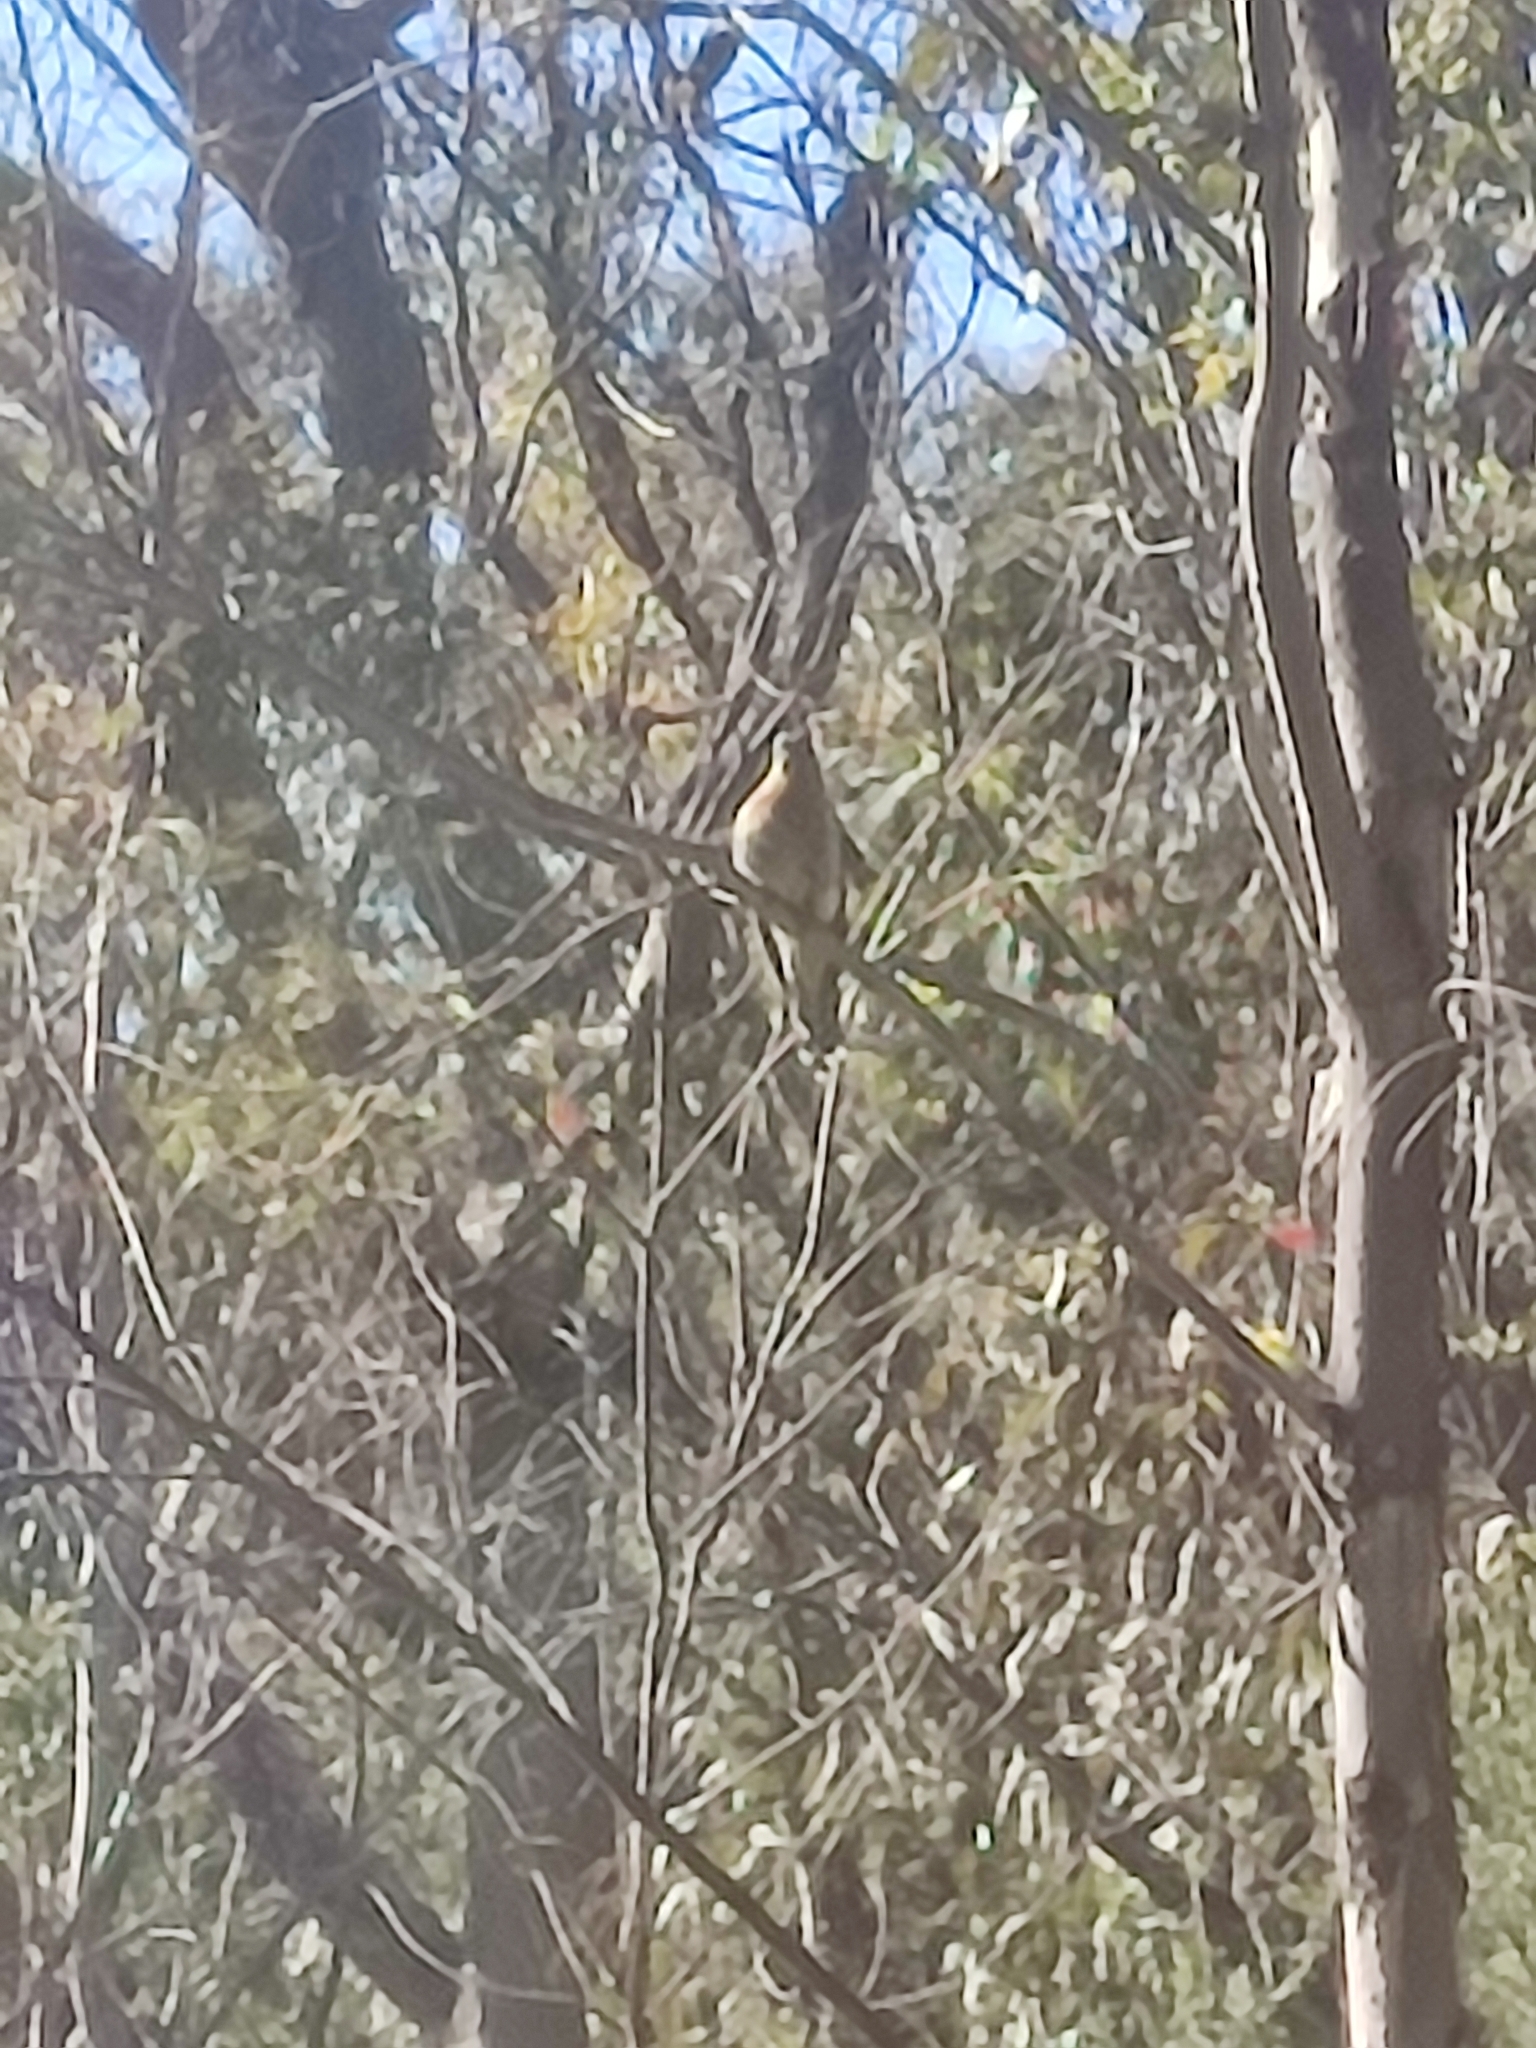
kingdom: Animalia
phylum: Chordata
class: Aves
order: Cuculiformes
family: Cuculidae
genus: Cacomantis
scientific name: Cacomantis flabelliformis
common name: Fan-tailed cuckoo
